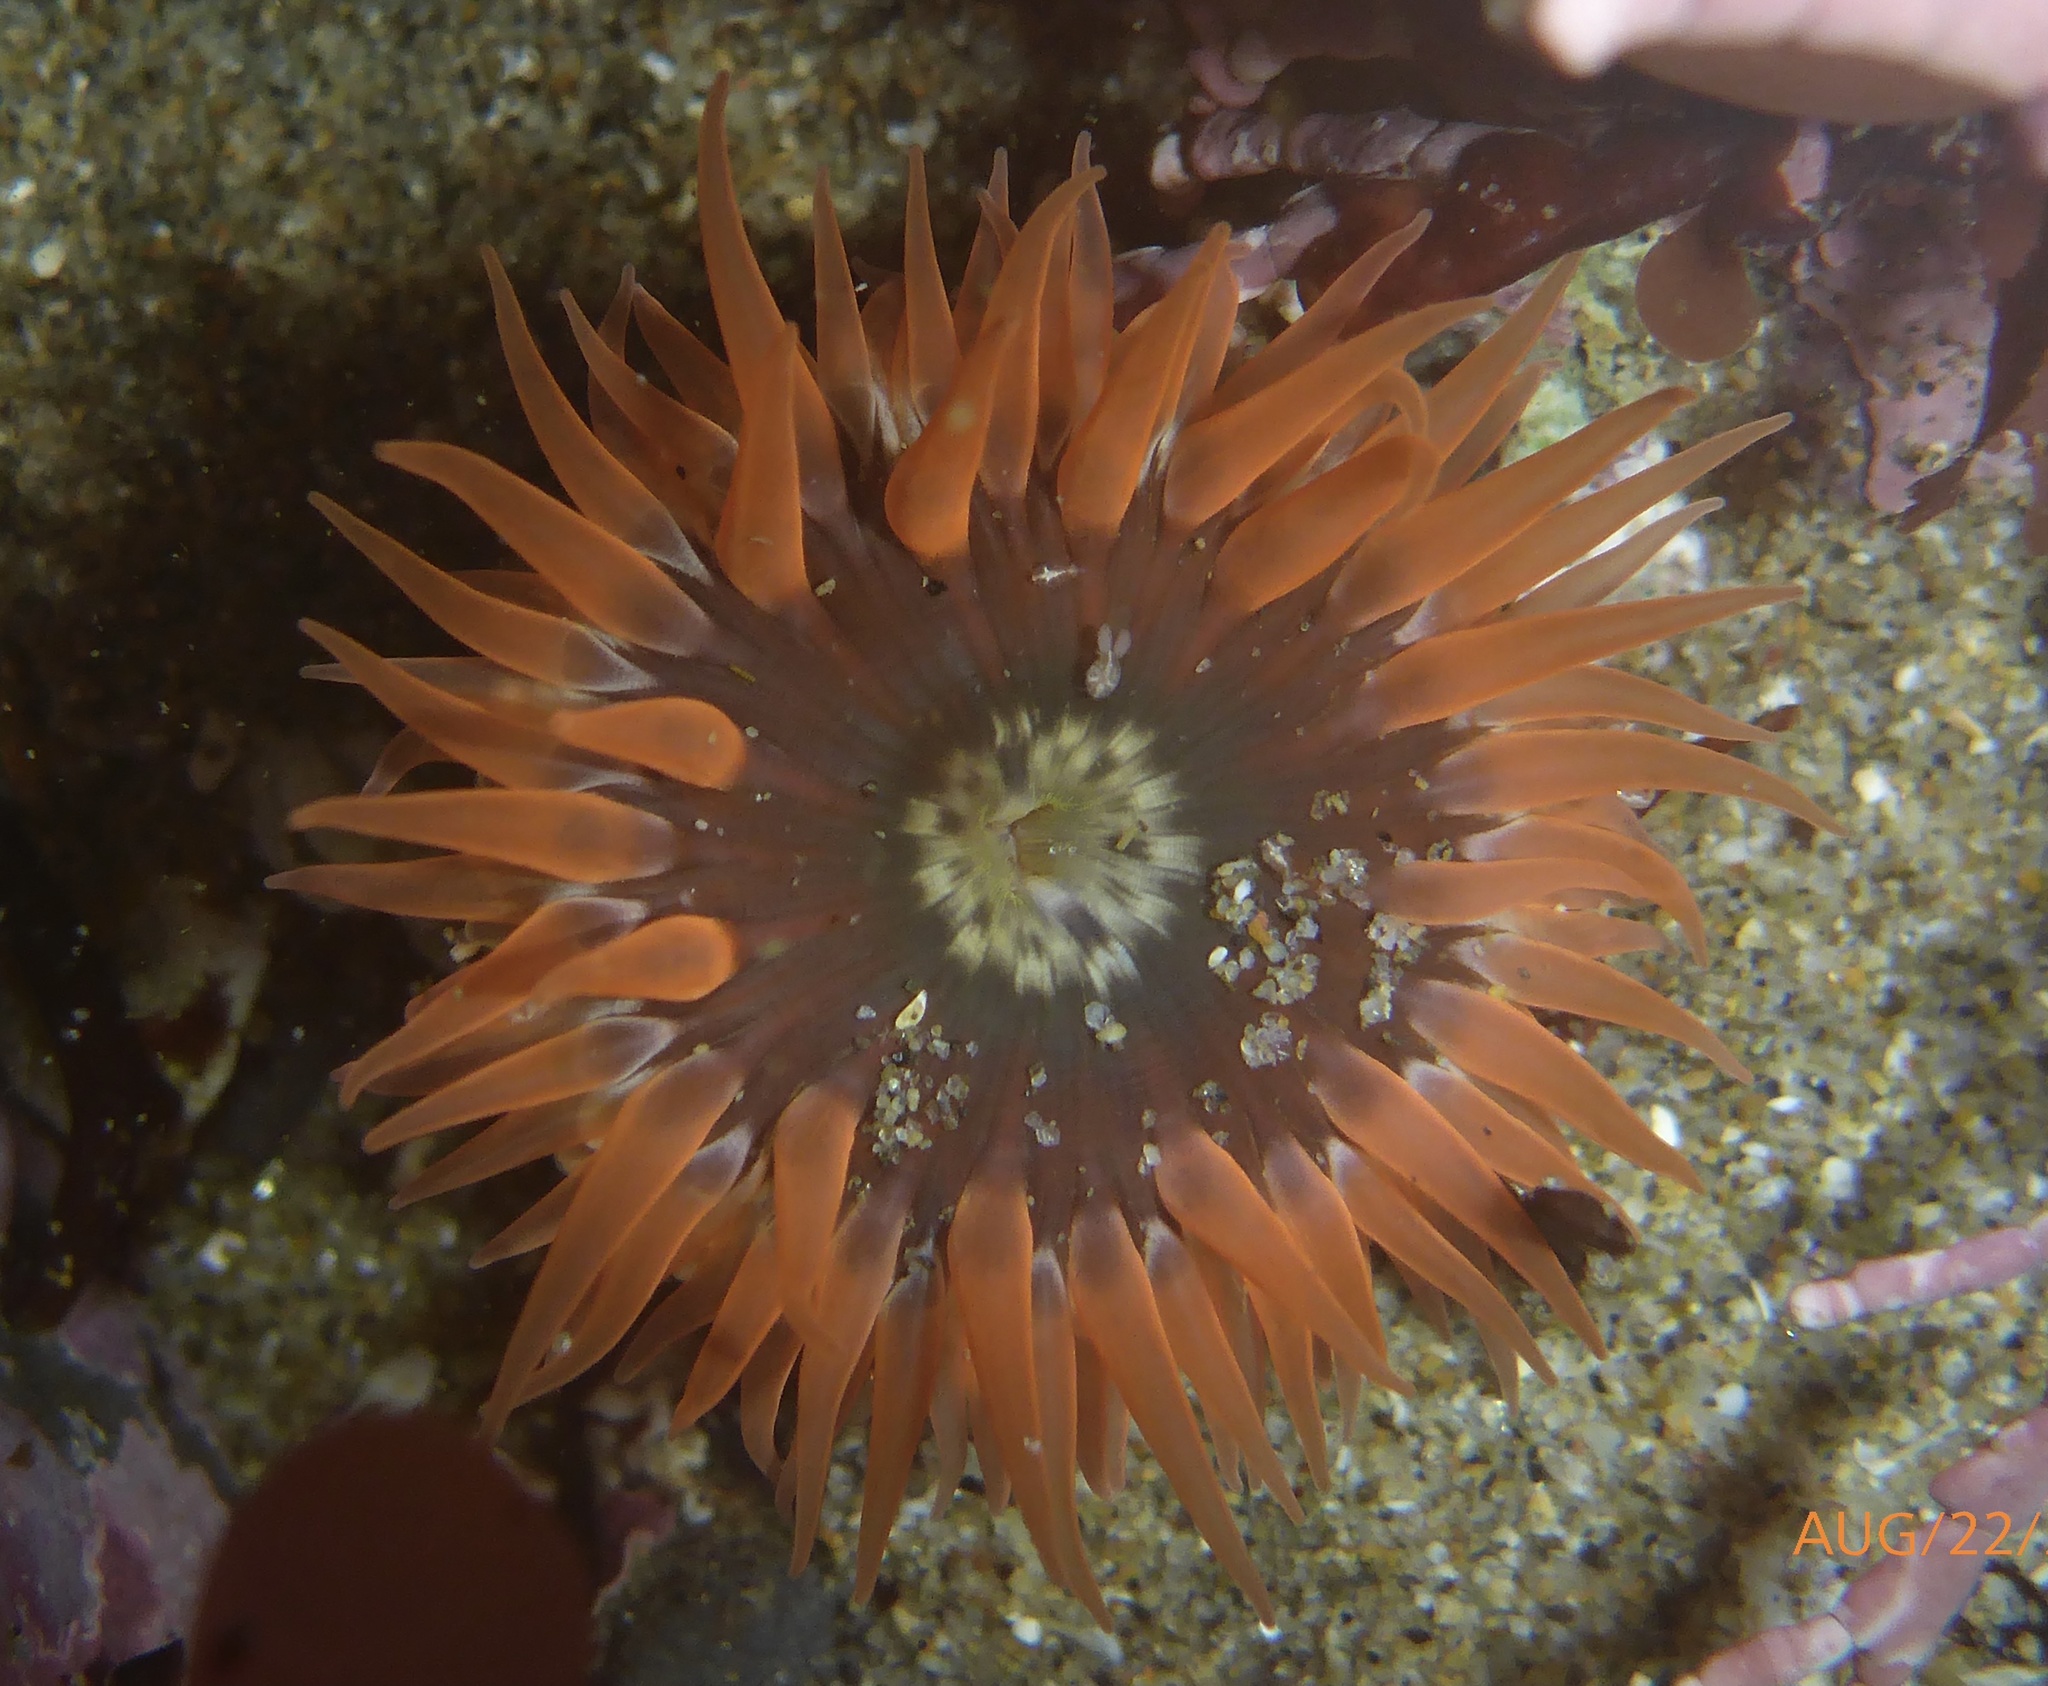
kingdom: Animalia
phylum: Cnidaria
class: Anthozoa
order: Actiniaria
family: Actiniidae
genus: Anthopleura
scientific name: Anthopleura artemisia
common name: Buried sea anemone
